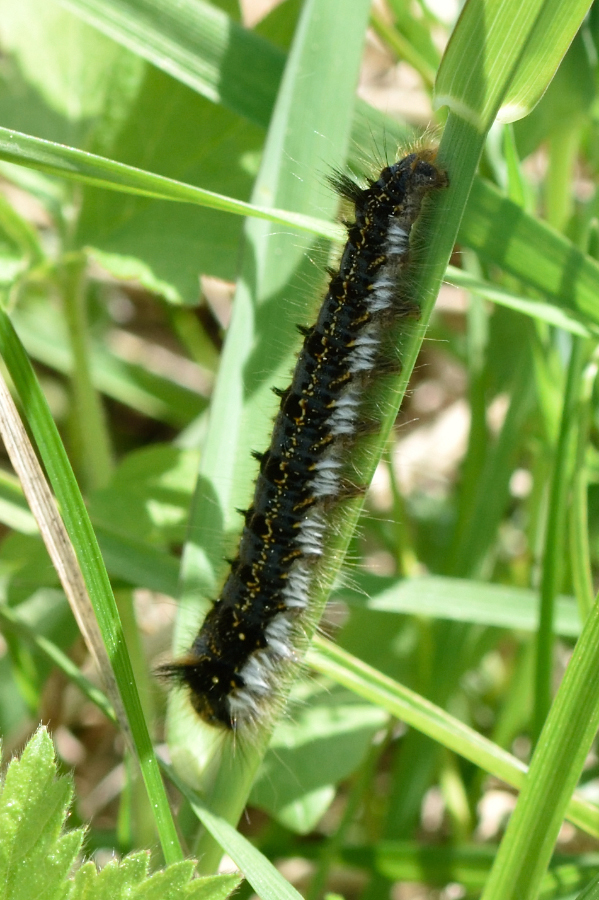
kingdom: Animalia
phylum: Arthropoda
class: Insecta
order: Lepidoptera
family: Lasiocampidae
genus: Euthrix
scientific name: Euthrix potatoria
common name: Drinker
